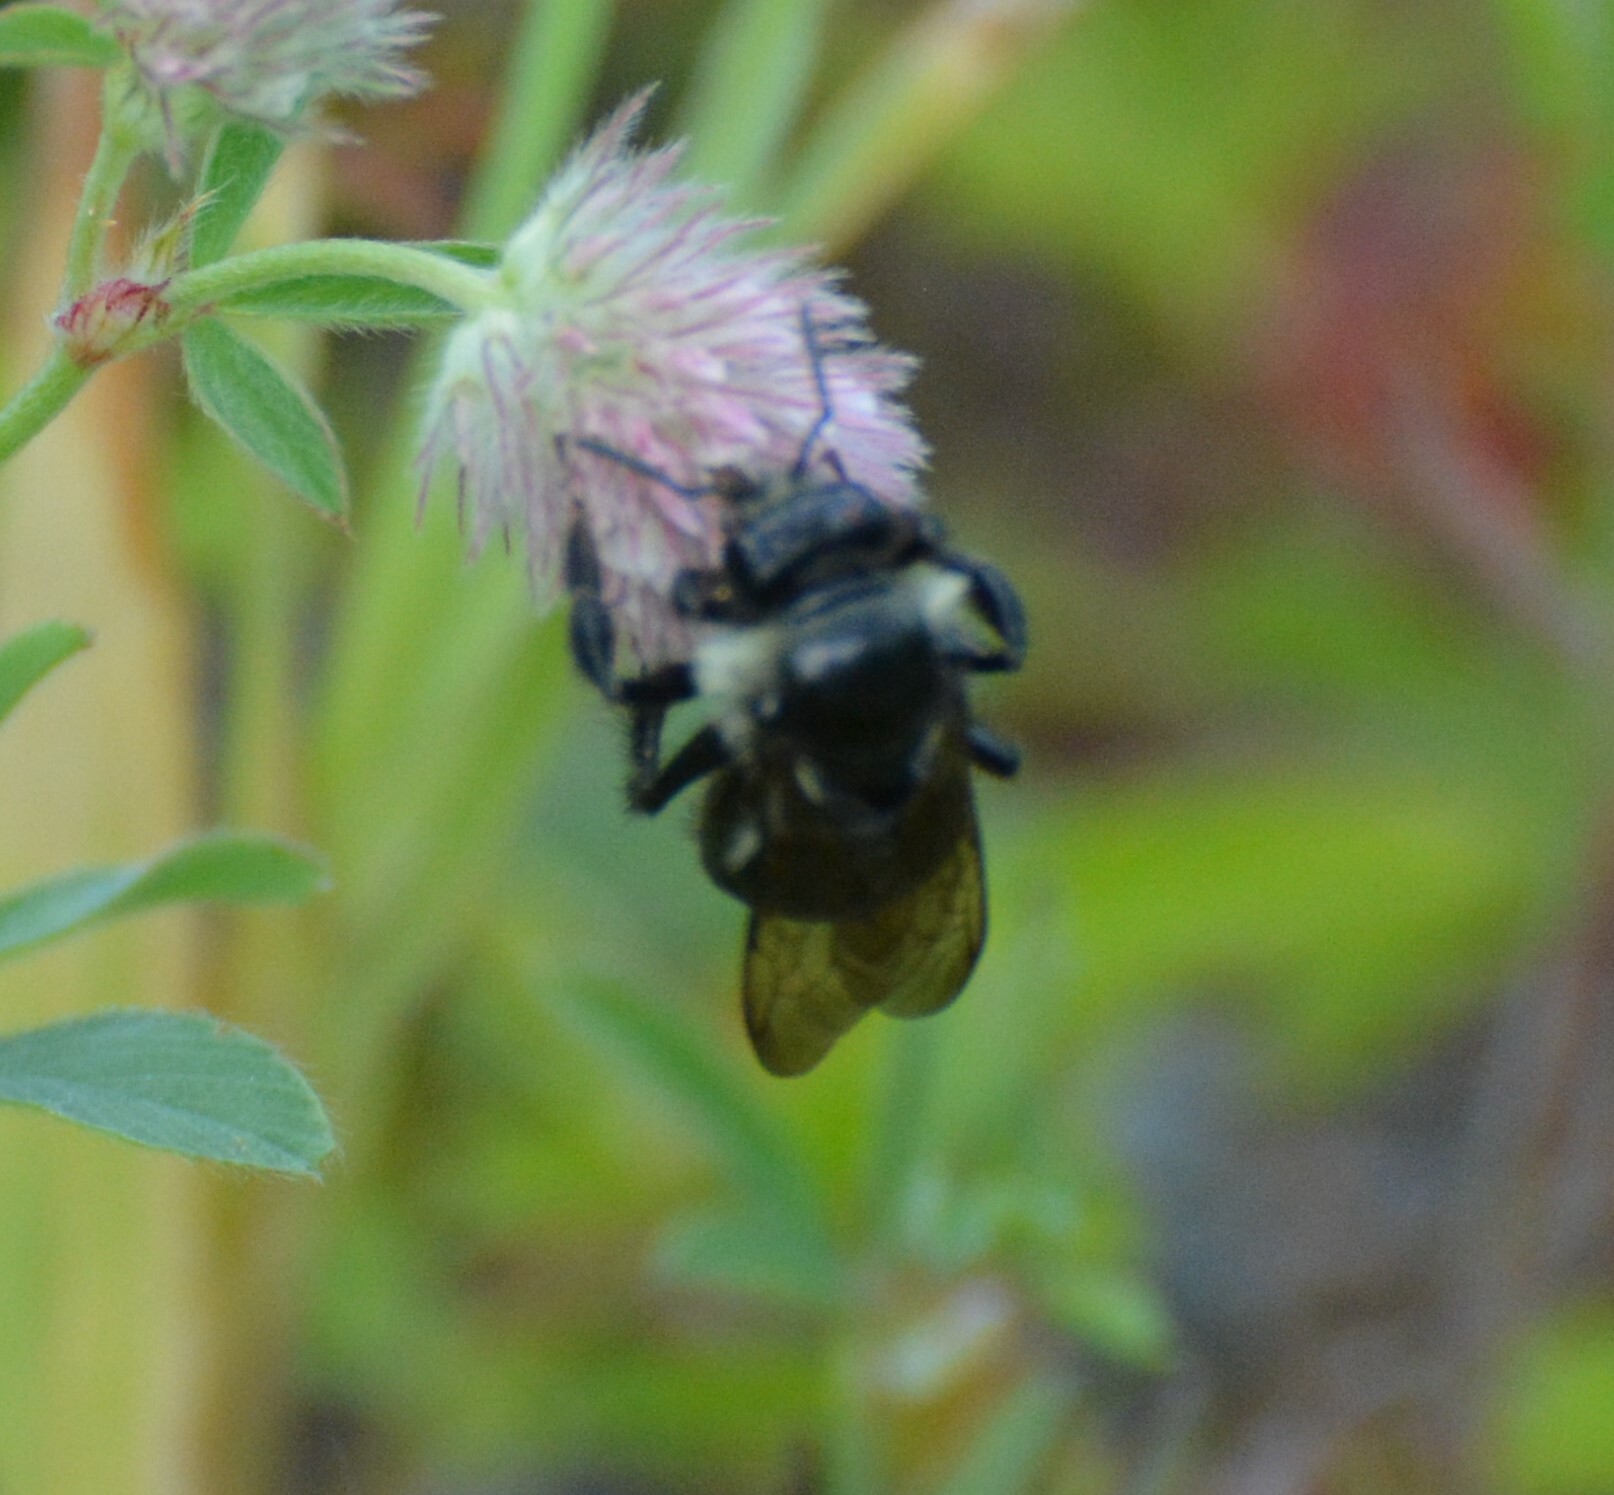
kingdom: Animalia
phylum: Arthropoda
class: Insecta
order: Hymenoptera
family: Apidae
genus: Bombus
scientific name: Bombus
